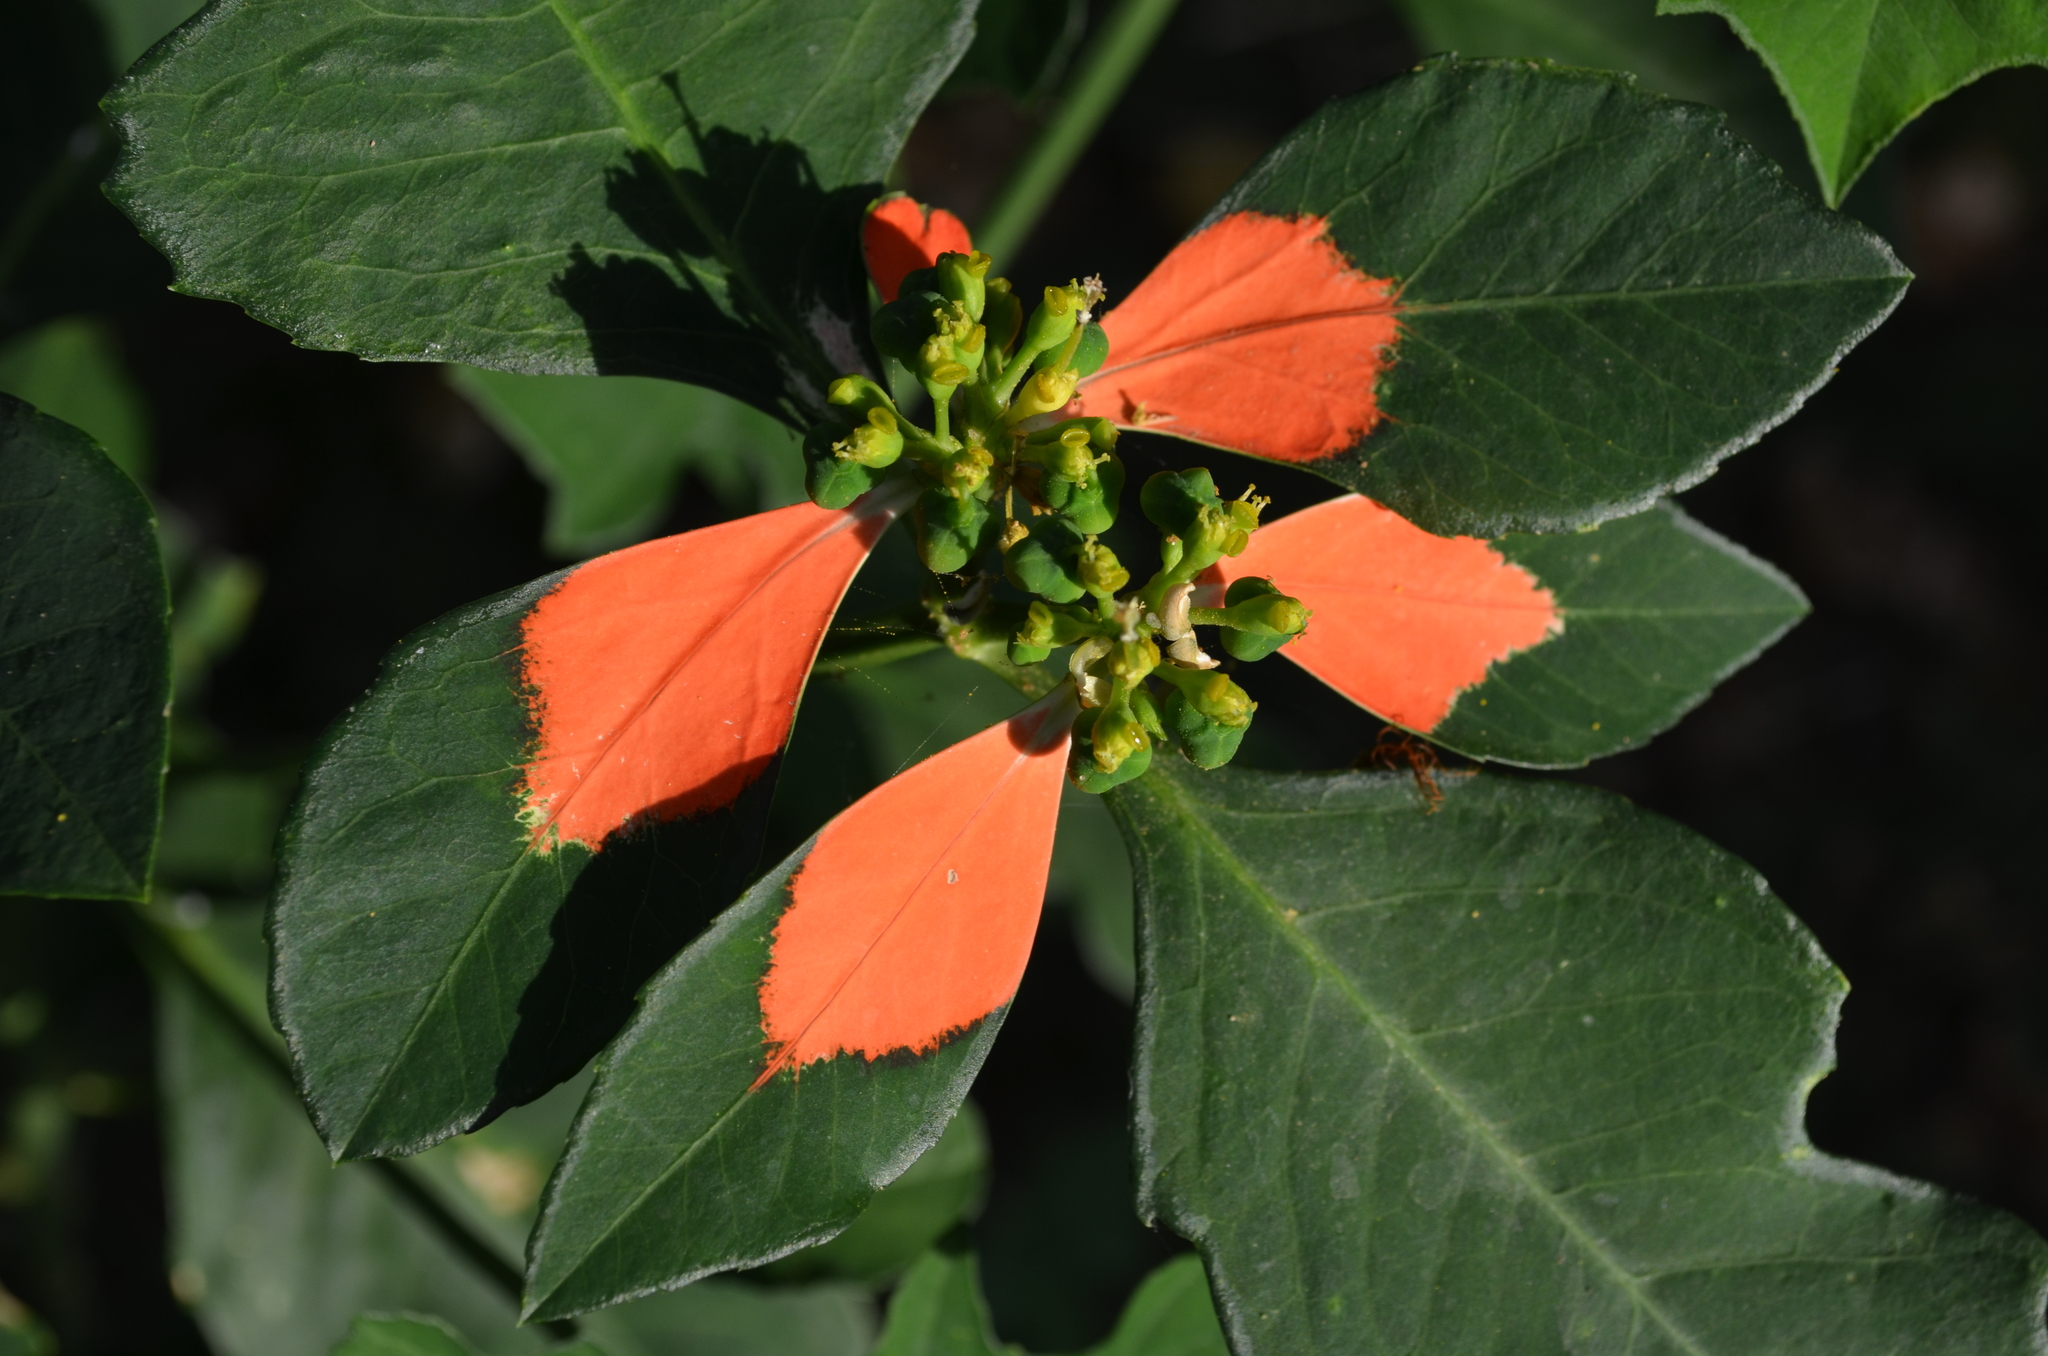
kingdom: Plantae
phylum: Tracheophyta
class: Magnoliopsida
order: Malpighiales
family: Euphorbiaceae
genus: Euphorbia
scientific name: Euphorbia heterophylla
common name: Mexican fireplant
